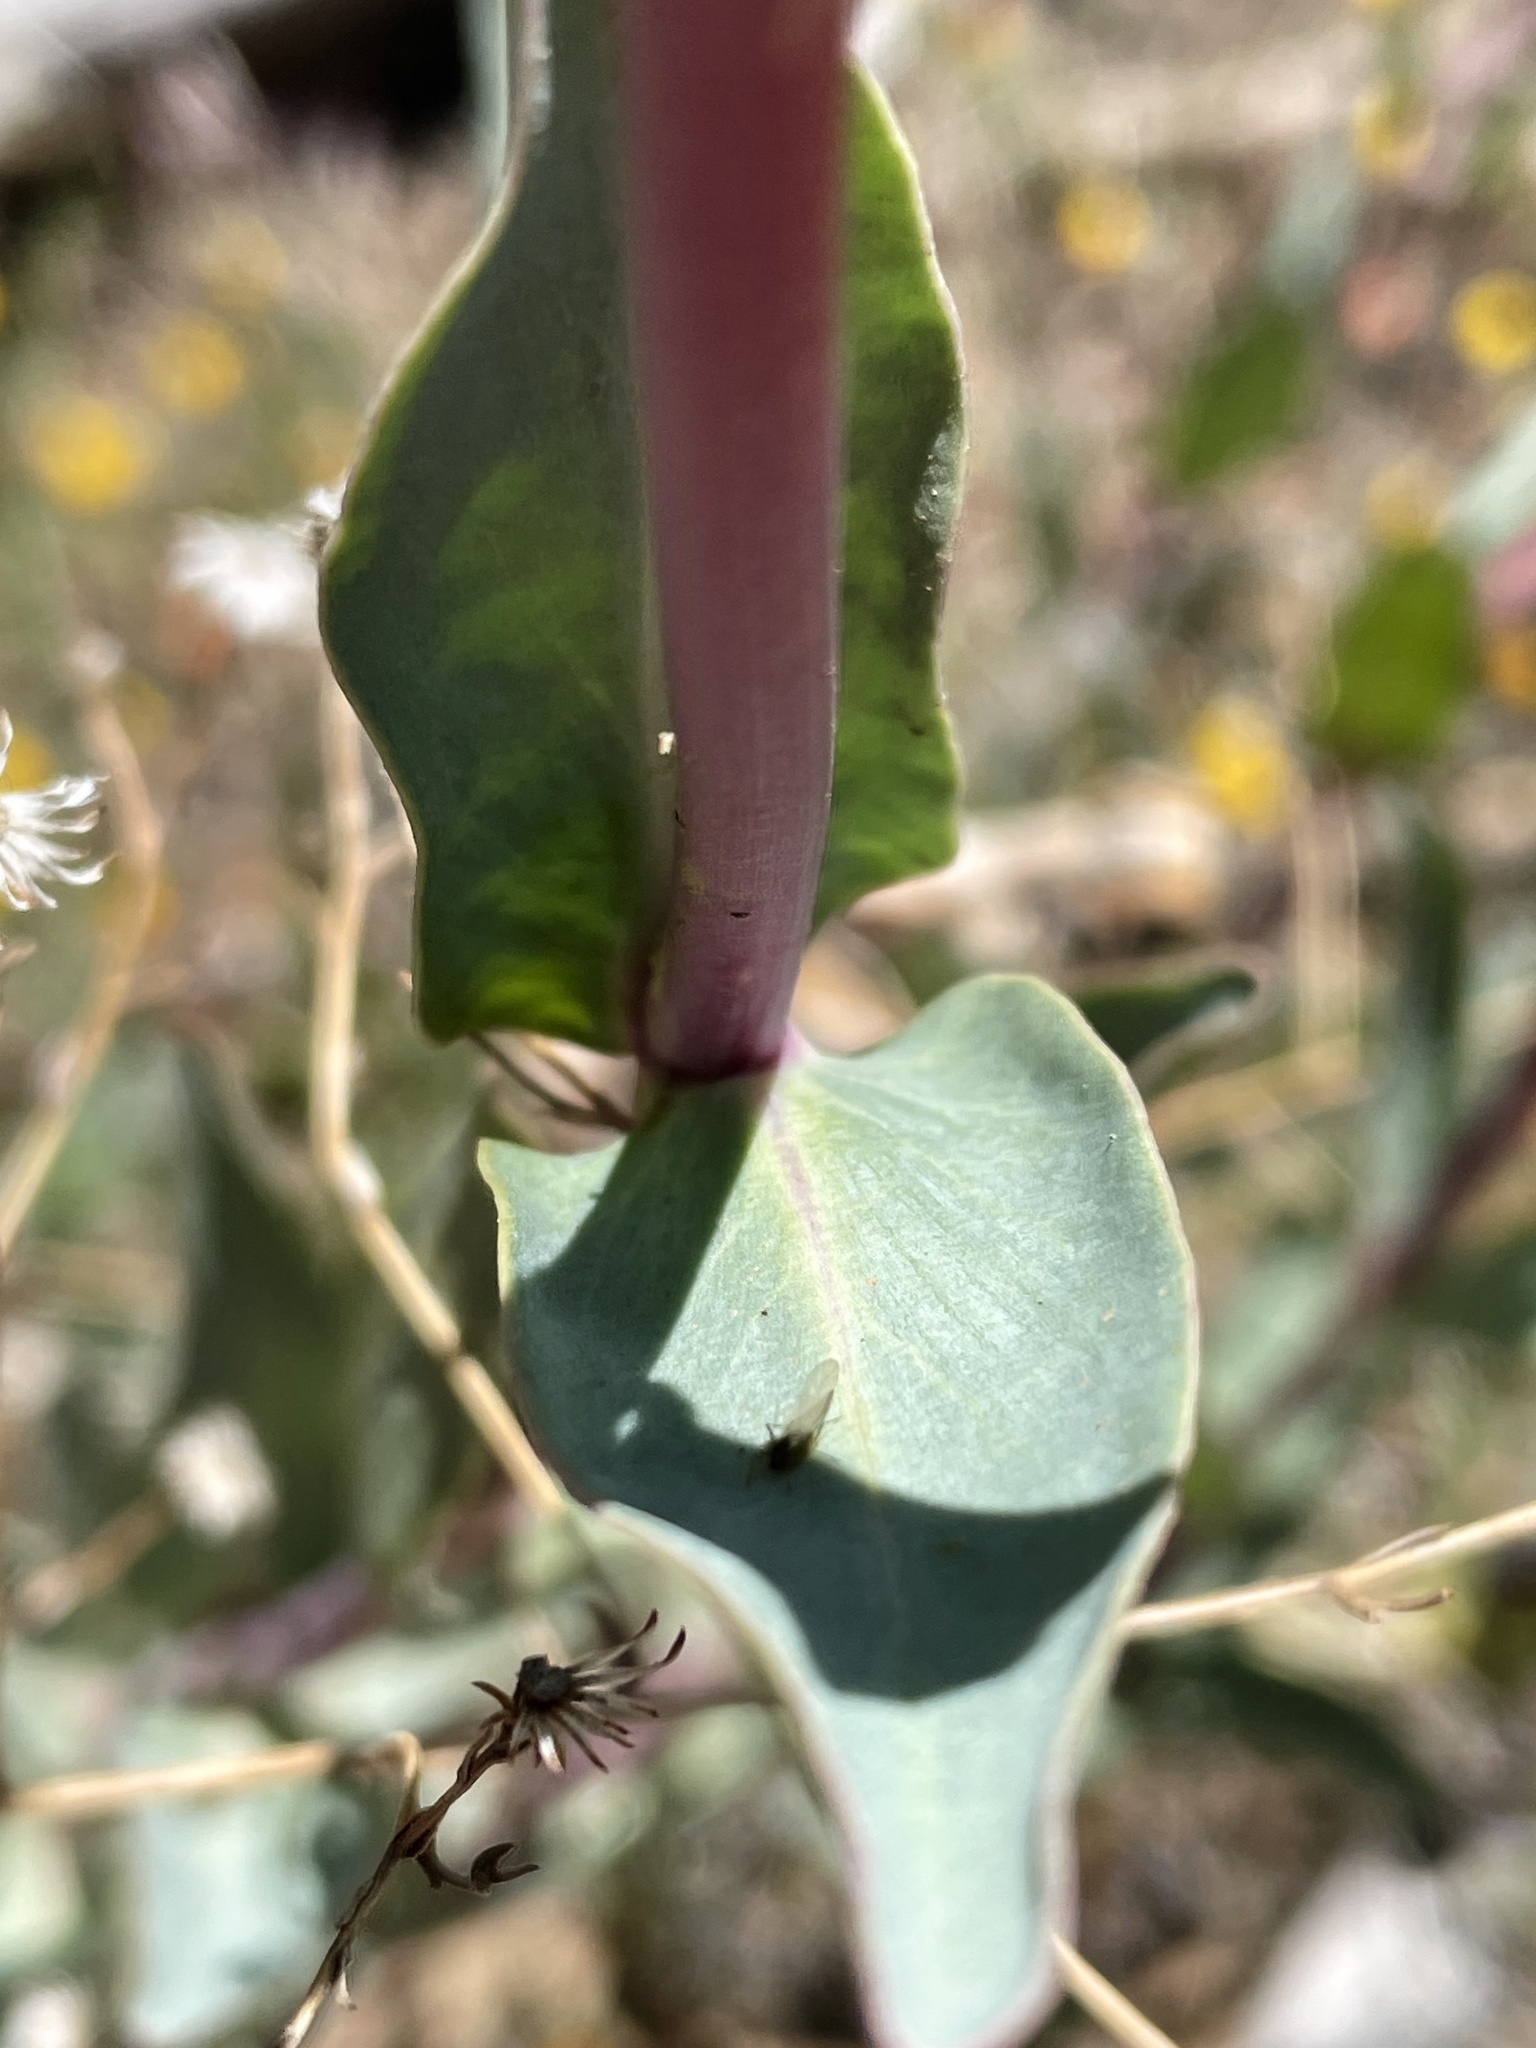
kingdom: Plantae
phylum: Tracheophyta
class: Magnoliopsida
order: Lamiales
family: Plantaginaceae
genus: Penstemon
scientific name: Penstemon centranthifolius
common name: Scarlet bugler
